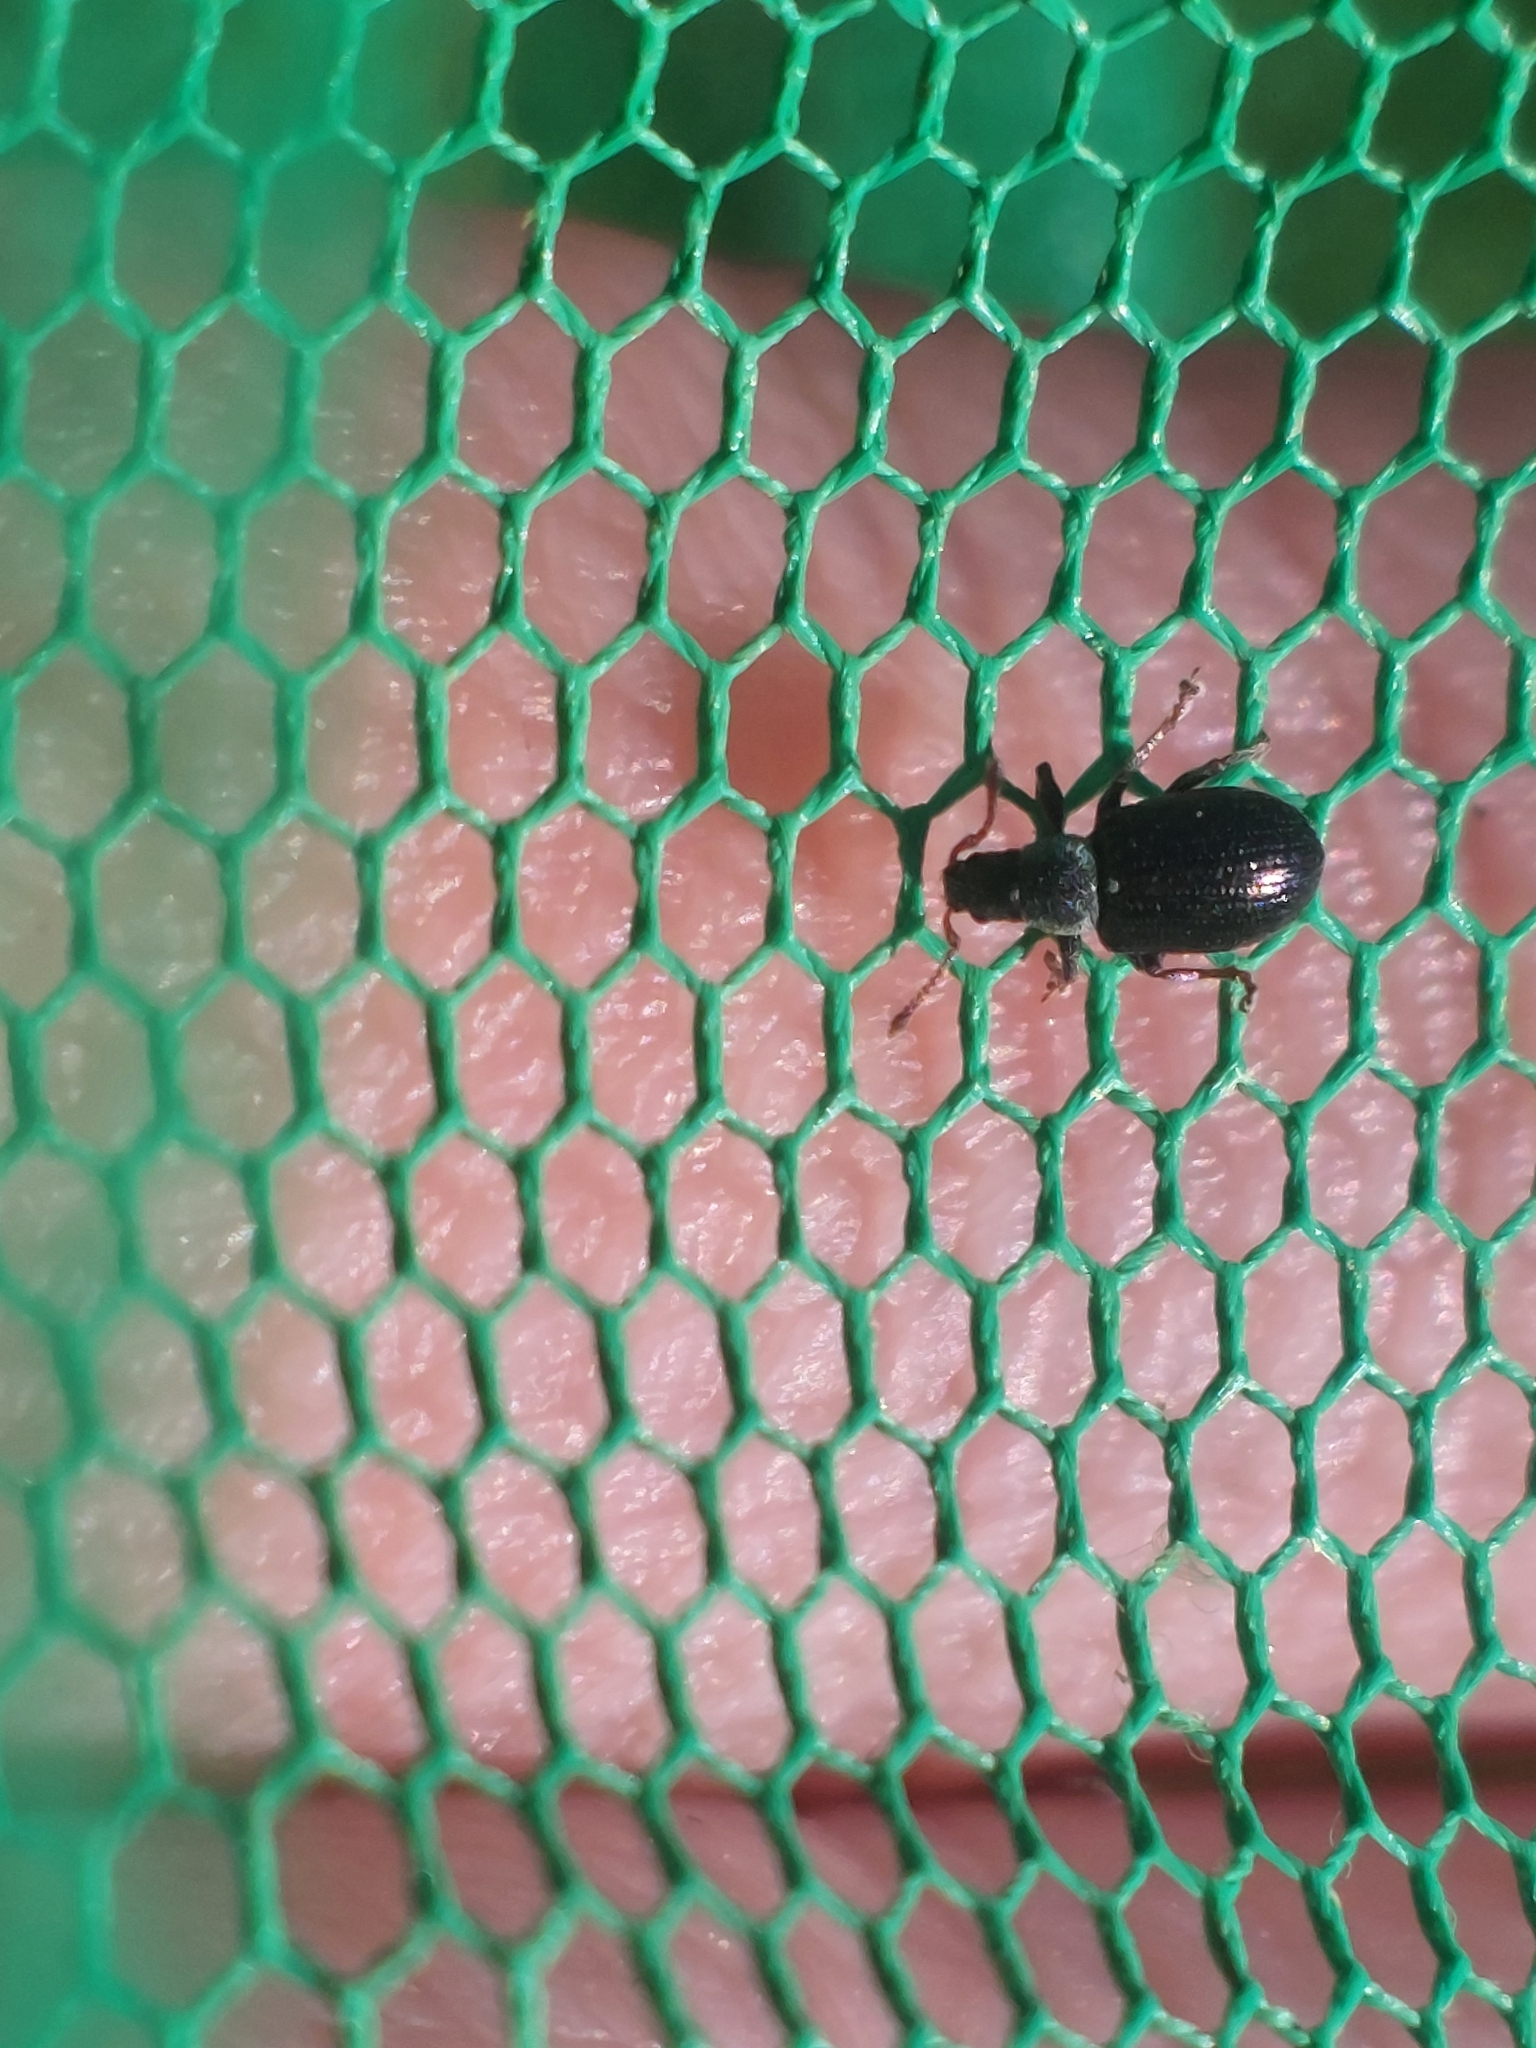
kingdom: Animalia
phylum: Arthropoda
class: Insecta
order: Coleoptera
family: Curculionidae
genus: Phyllobius
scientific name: Phyllobius viridicollis
